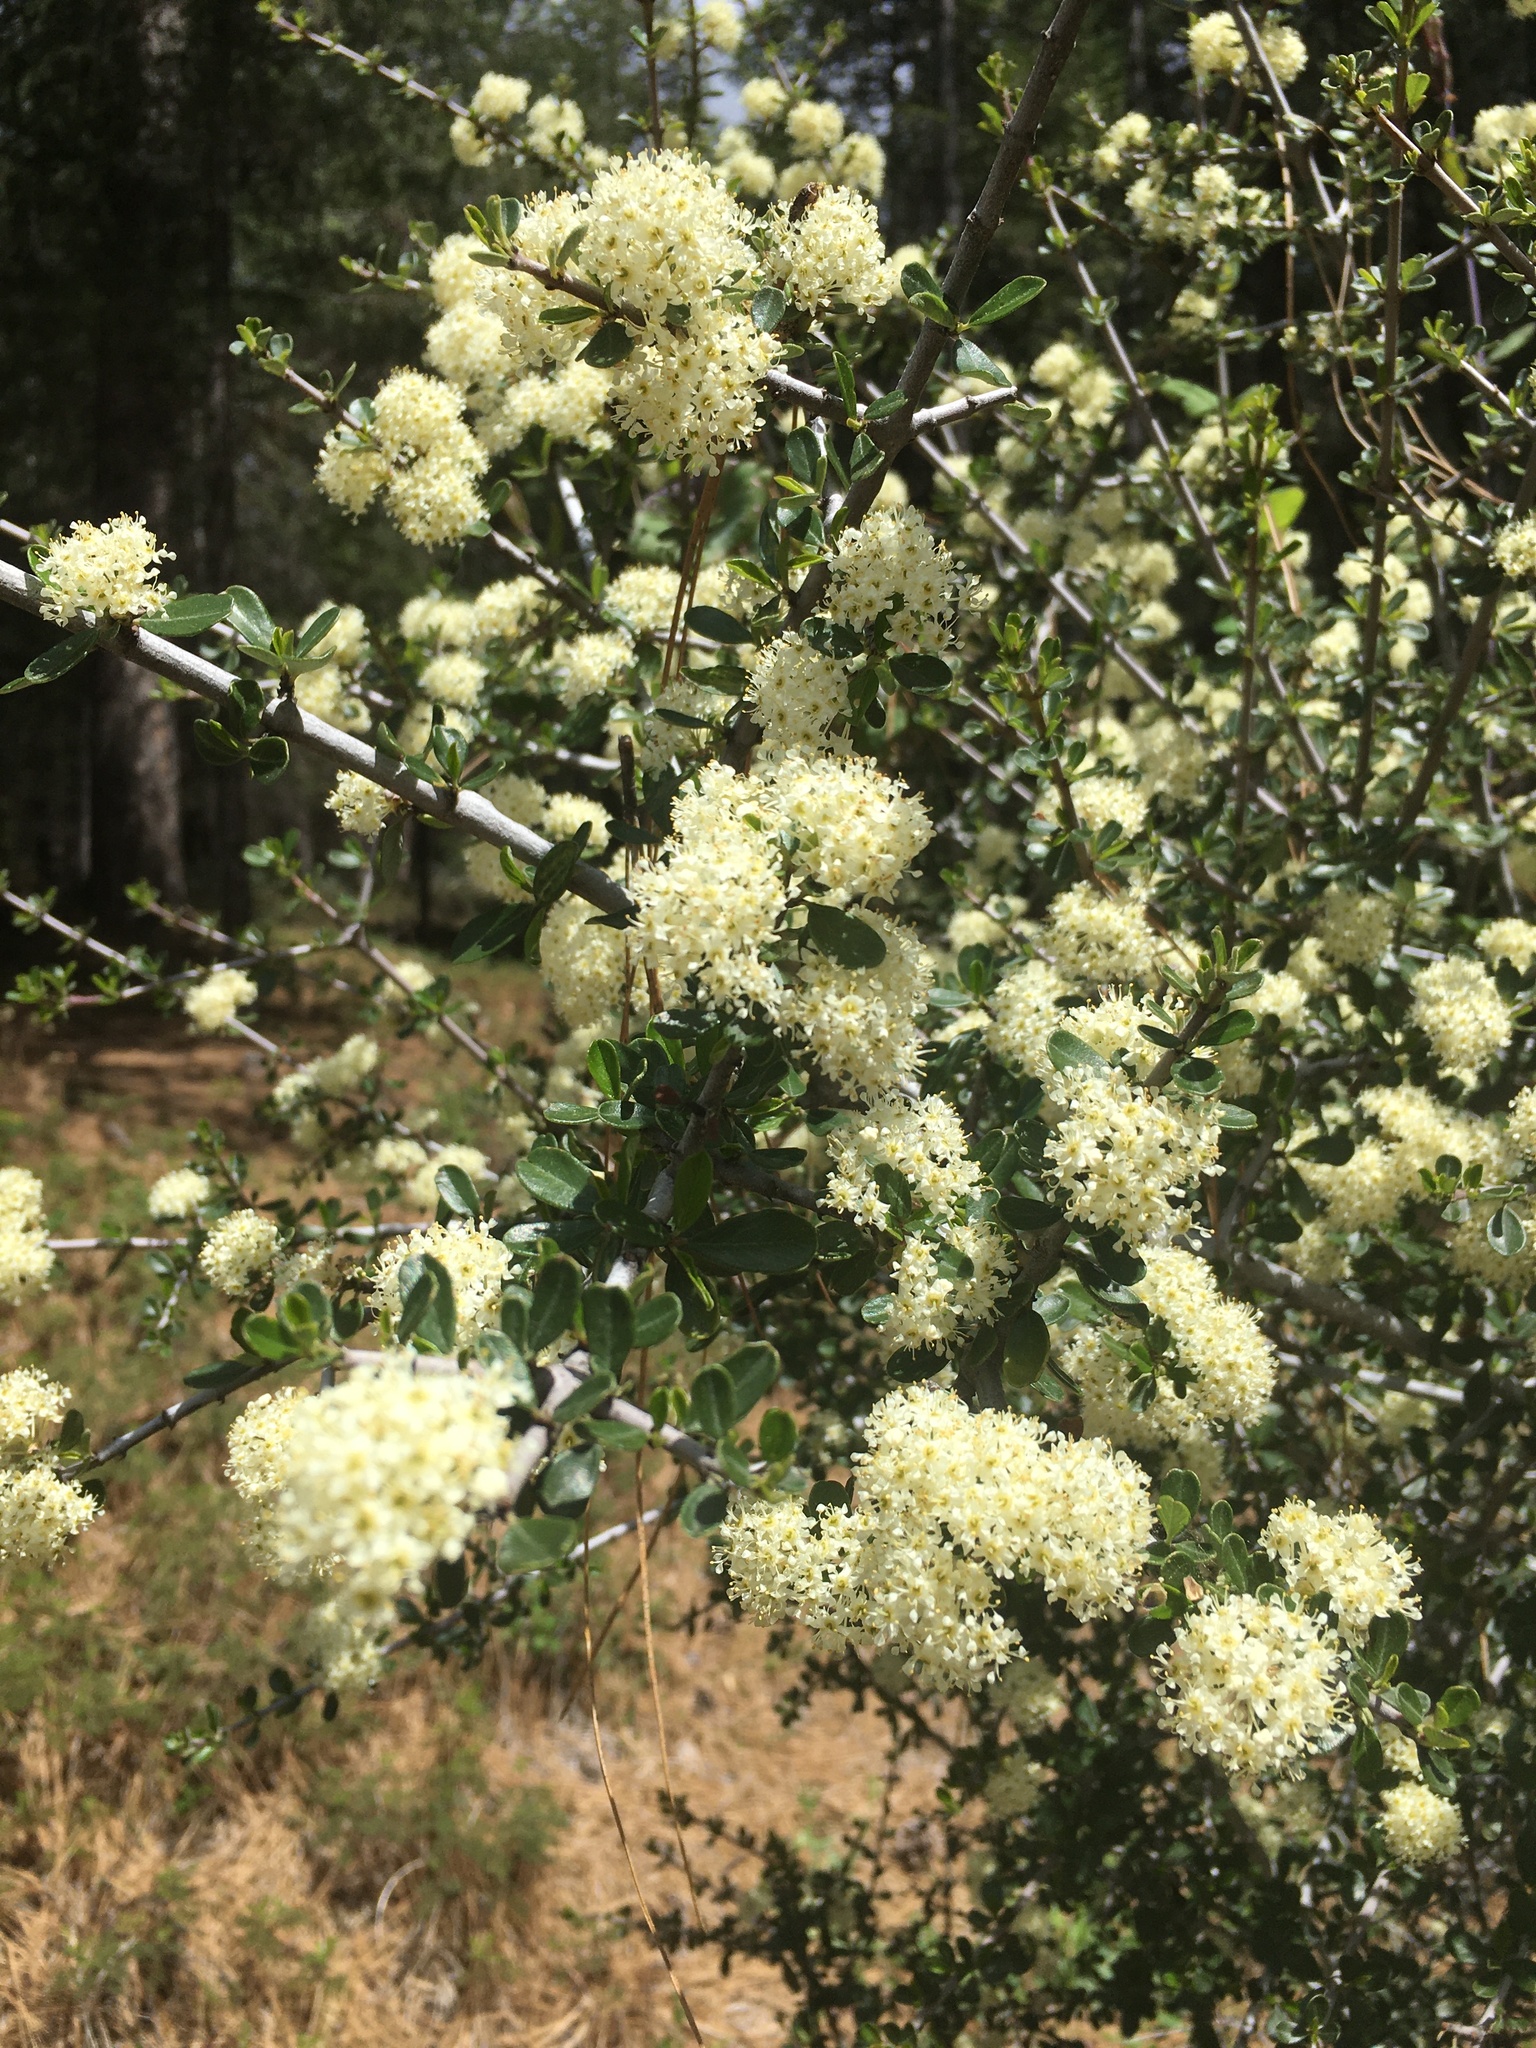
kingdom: Plantae
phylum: Tracheophyta
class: Magnoliopsida
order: Rosales
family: Rhamnaceae
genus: Ceanothus
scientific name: Ceanothus cuneatus
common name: Cuneate ceanothus
